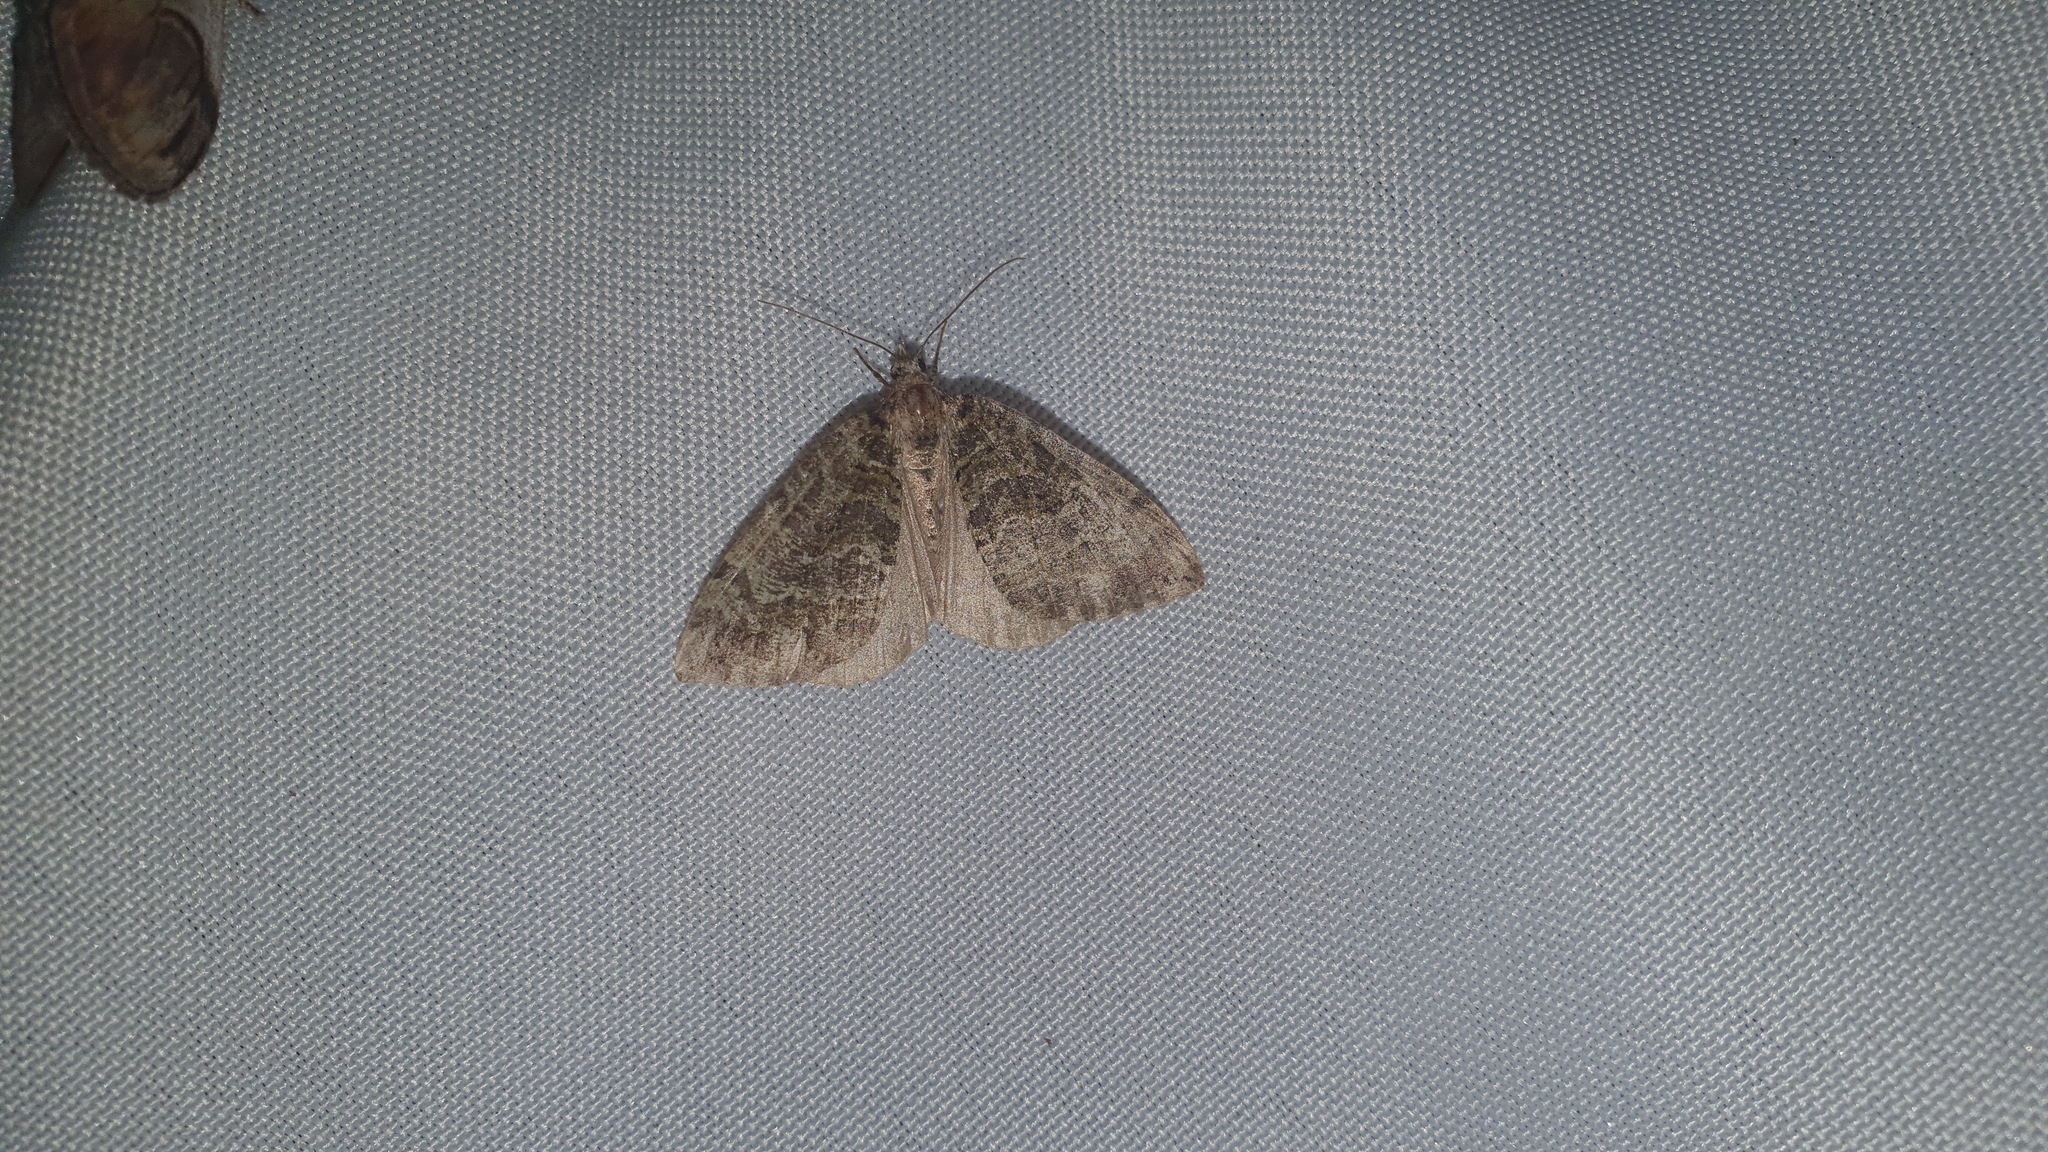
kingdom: Animalia
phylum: Arthropoda
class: Insecta
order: Lepidoptera
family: Geometridae
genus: Hydriomena
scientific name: Hydriomena furcata
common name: July highflyer
